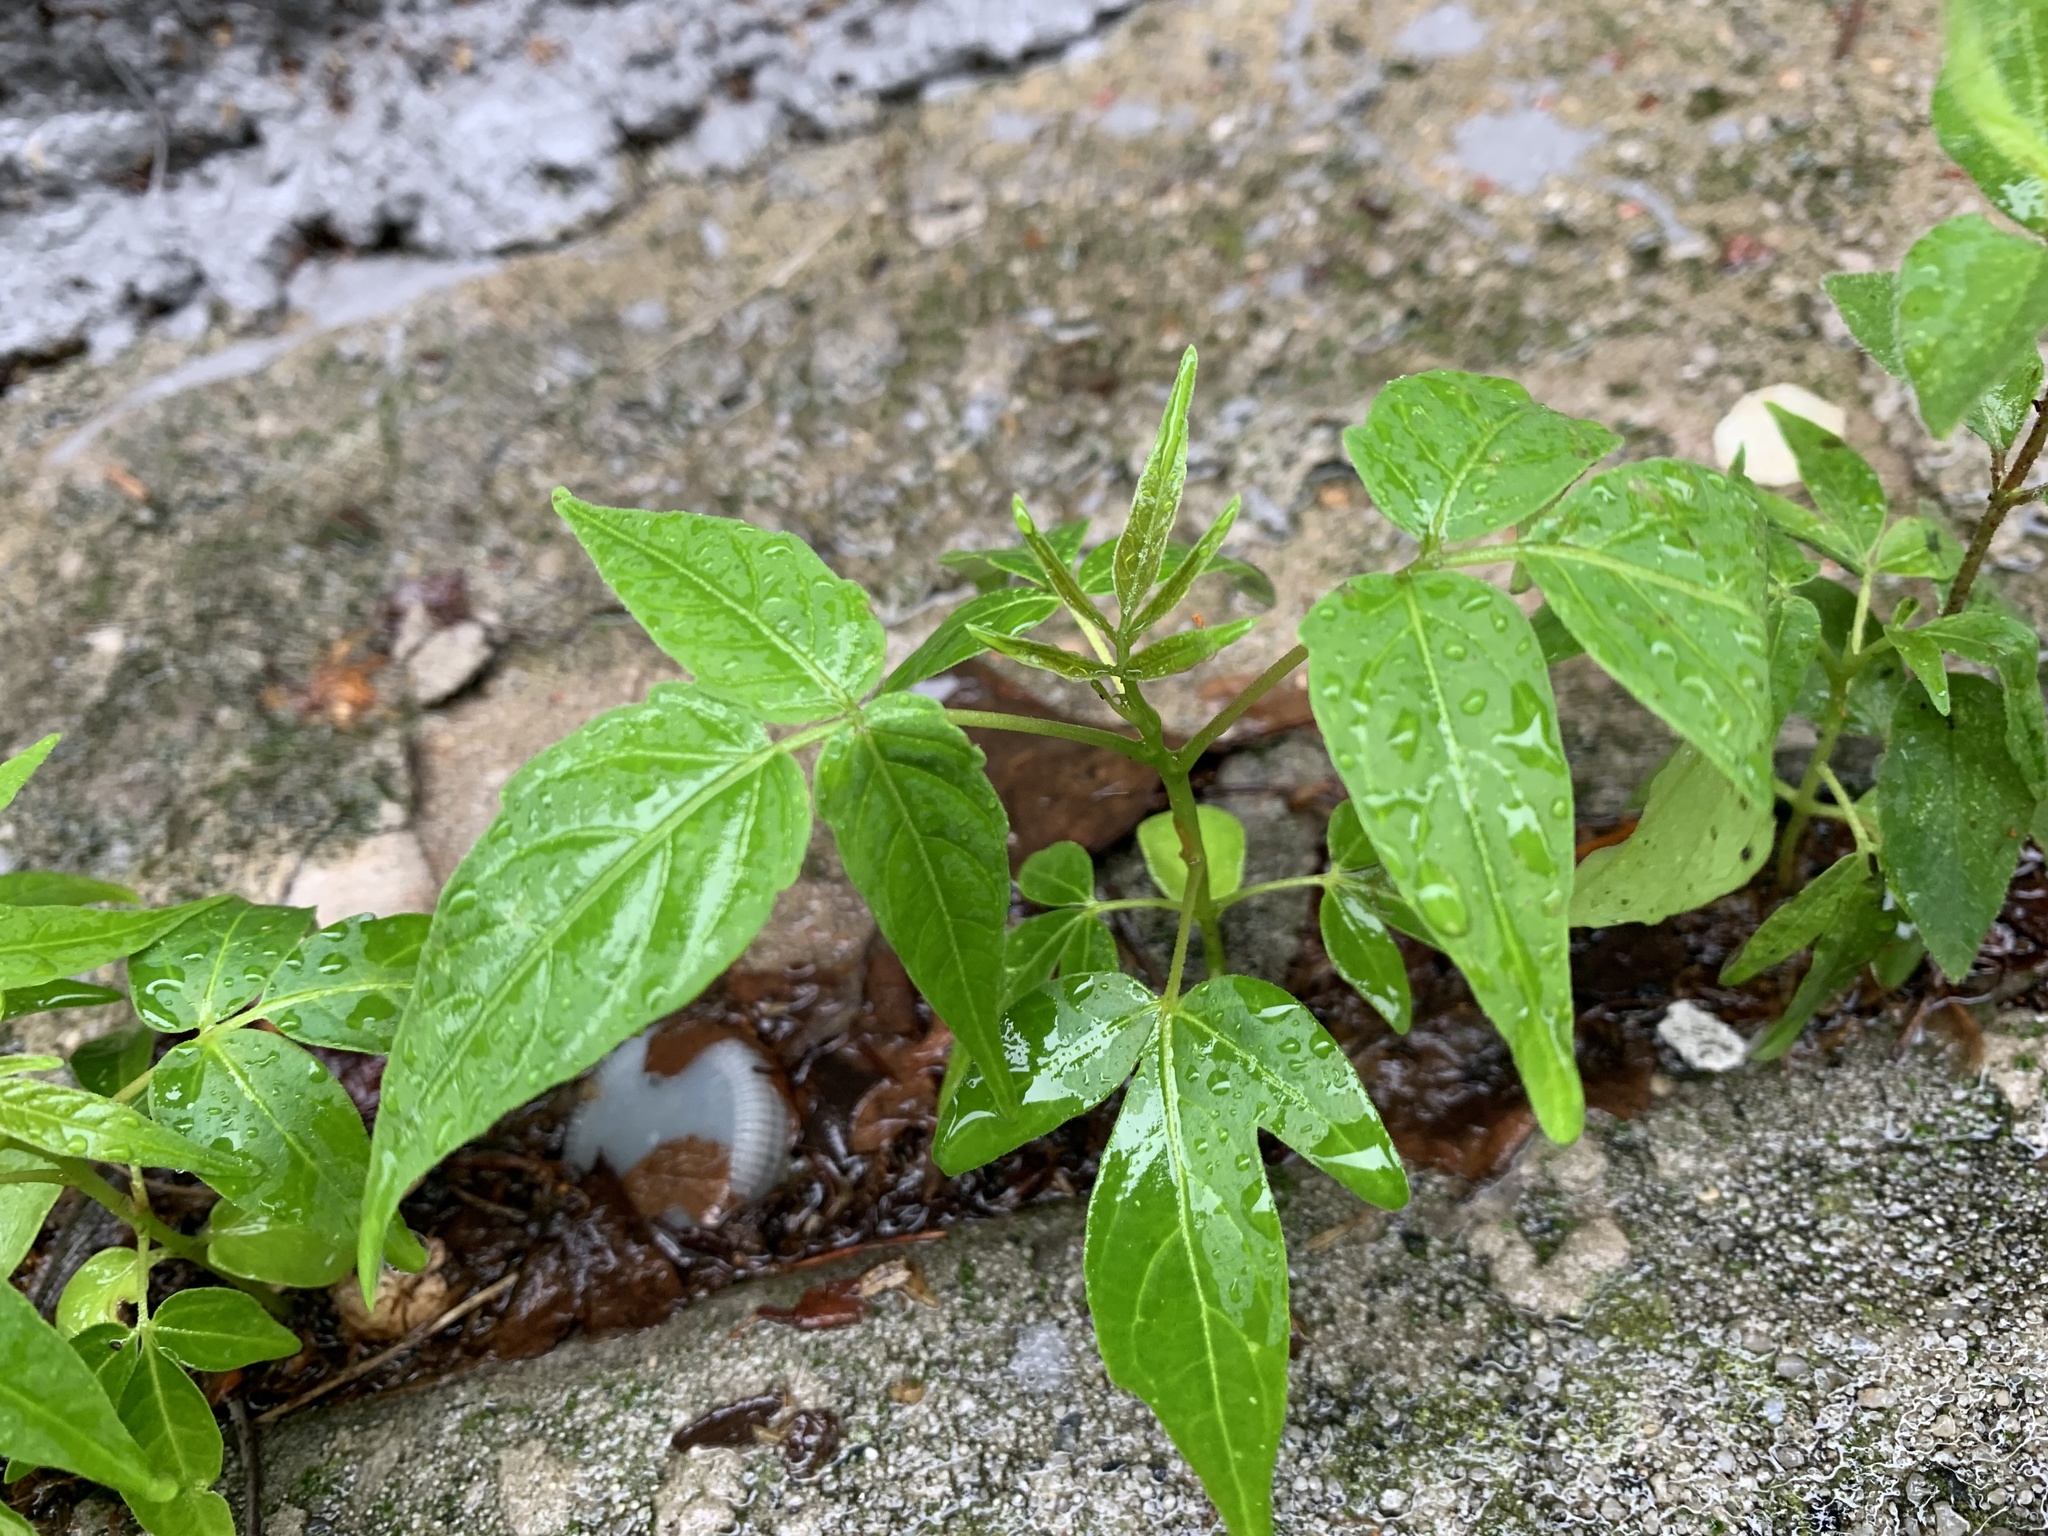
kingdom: Plantae
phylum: Tracheophyta
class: Magnoliopsida
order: Sapindales
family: Simaroubaceae
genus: Ailanthus
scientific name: Ailanthus altissima
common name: Tree-of-heaven
